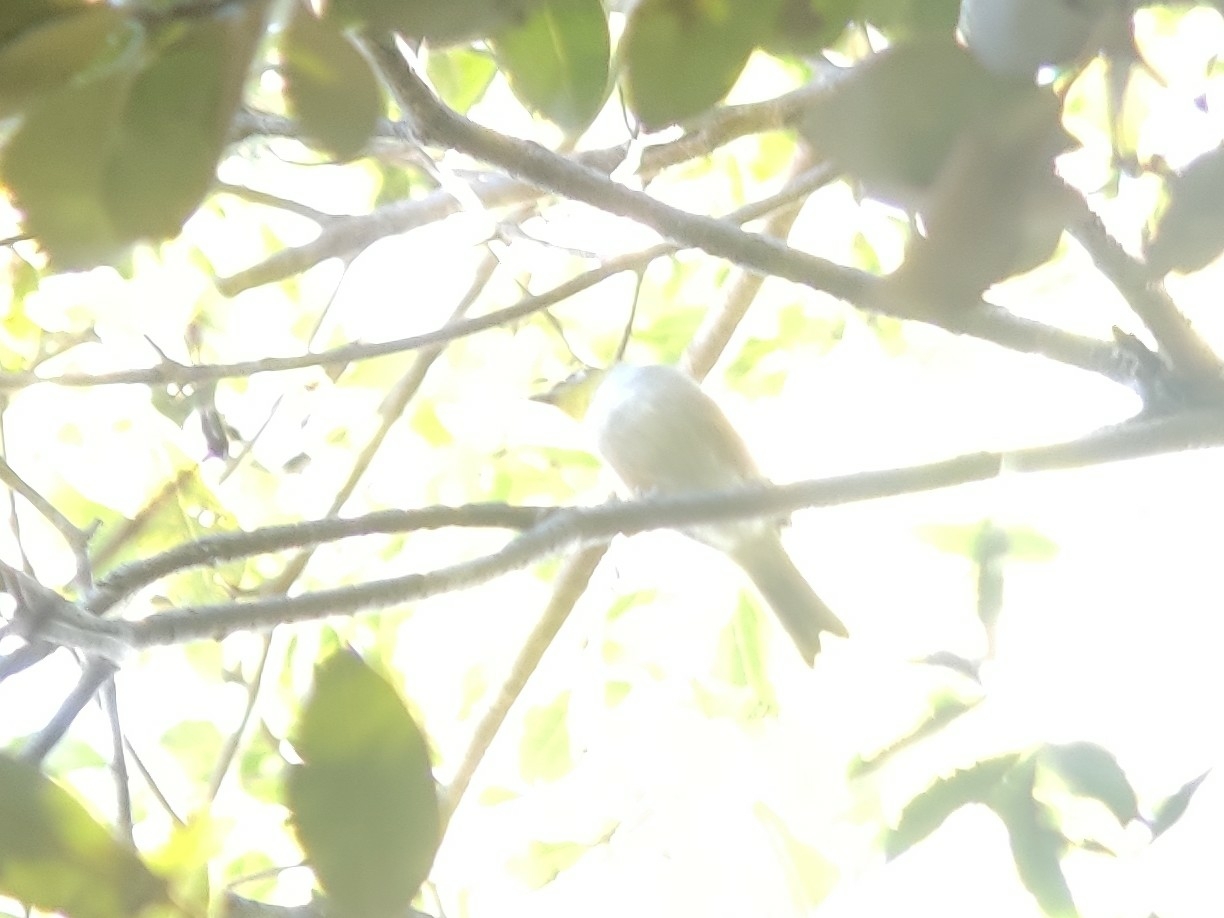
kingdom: Animalia
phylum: Chordata
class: Aves
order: Passeriformes
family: Zosteropidae
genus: Zosterops
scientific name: Zosterops lateralis
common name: Silvereye
